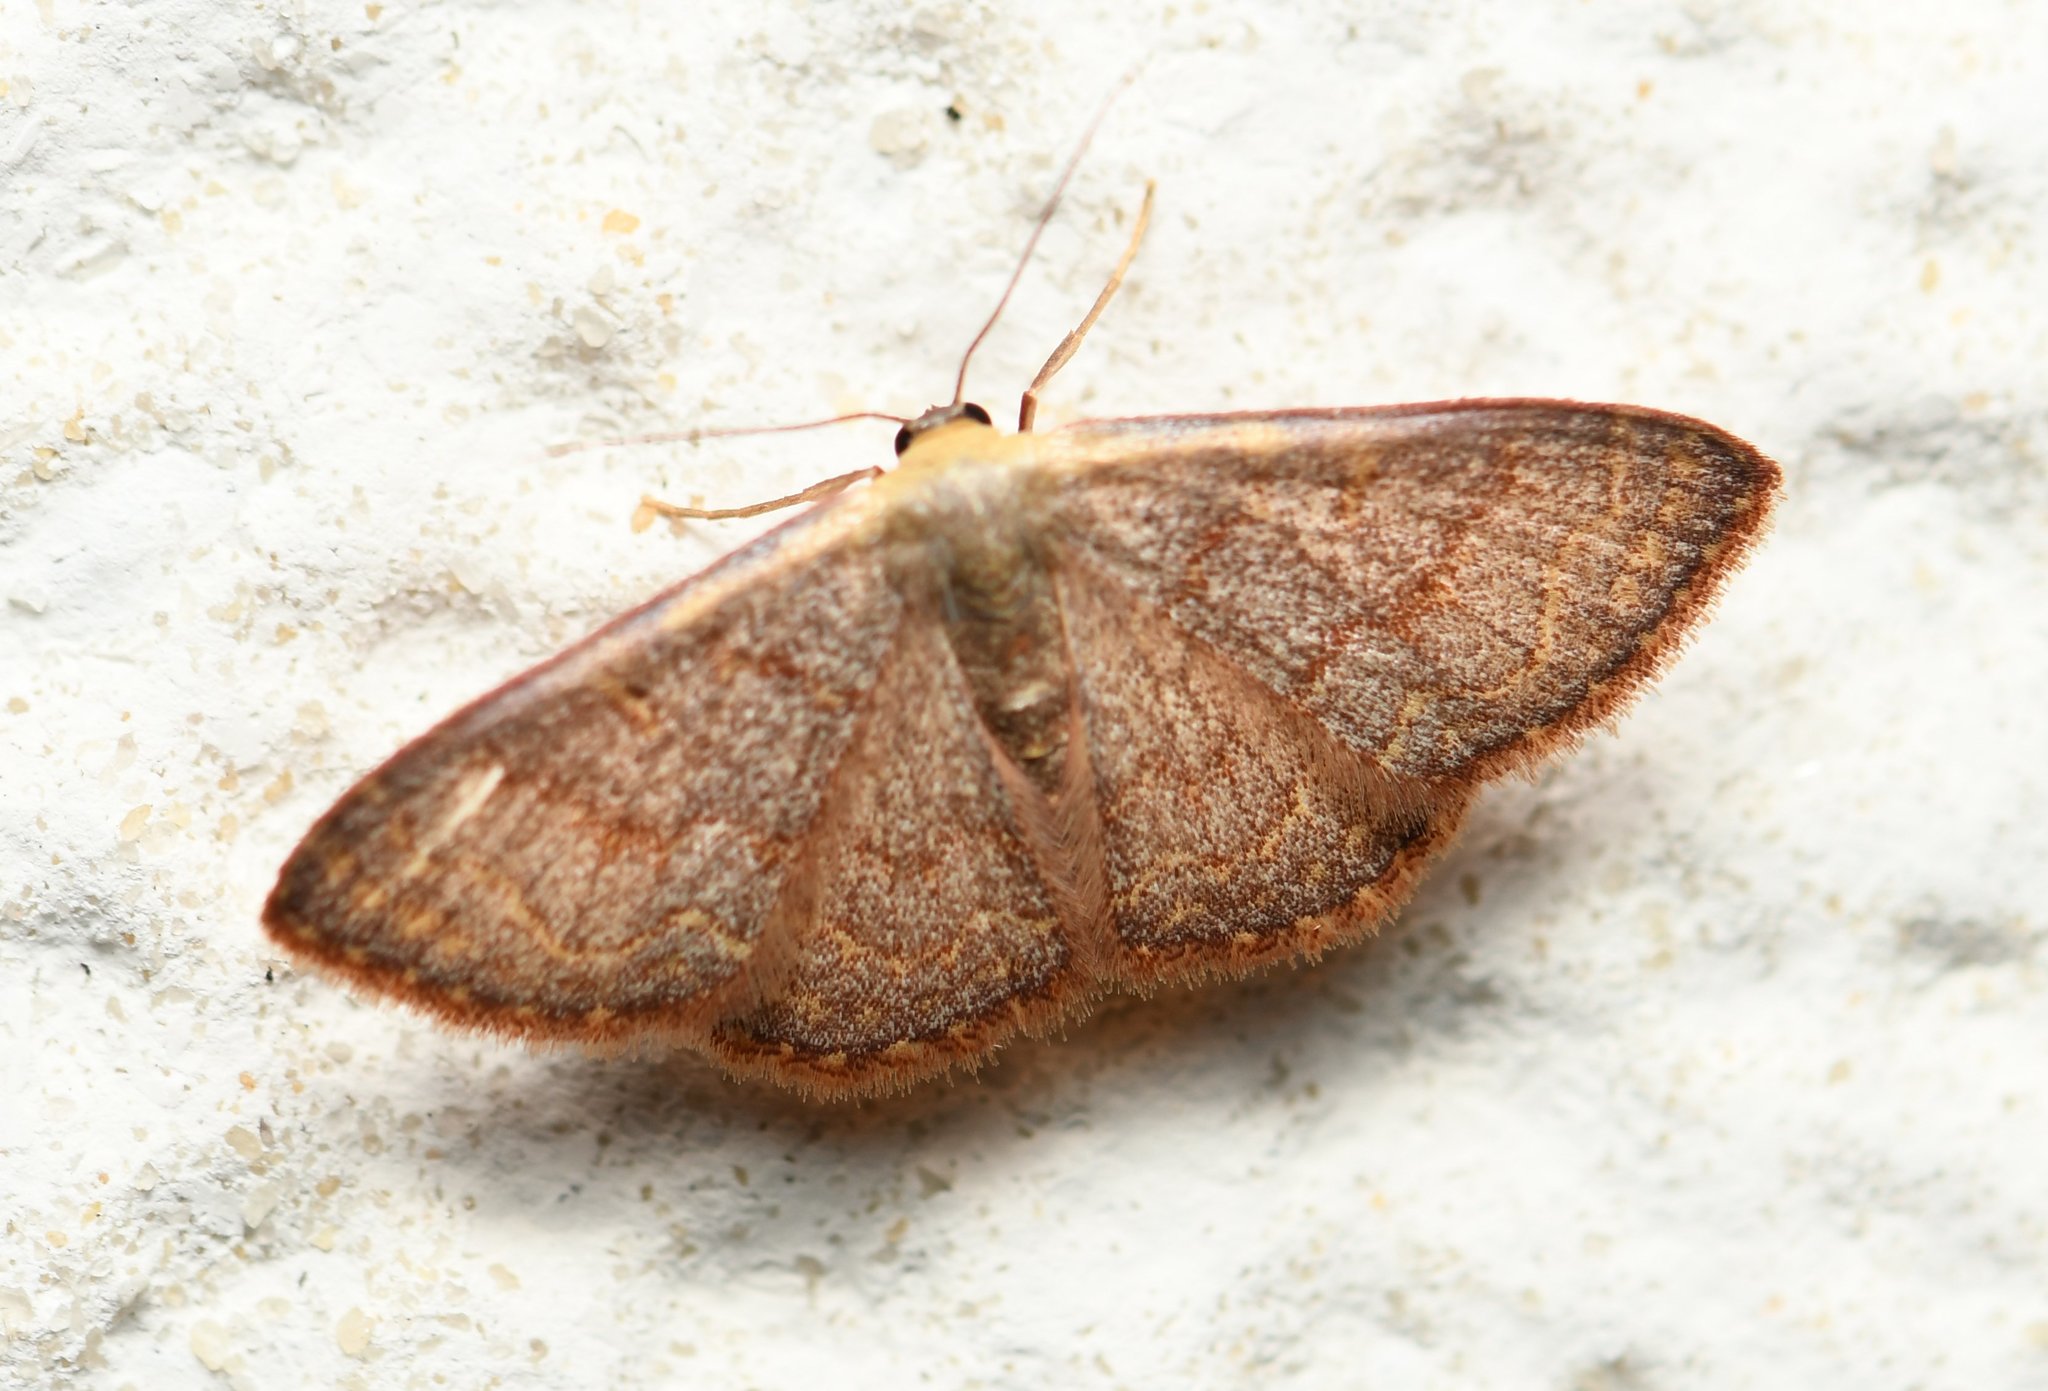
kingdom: Animalia
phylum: Arthropoda
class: Insecta
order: Lepidoptera
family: Geometridae
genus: Leptostales
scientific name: Leptostales pannaria
